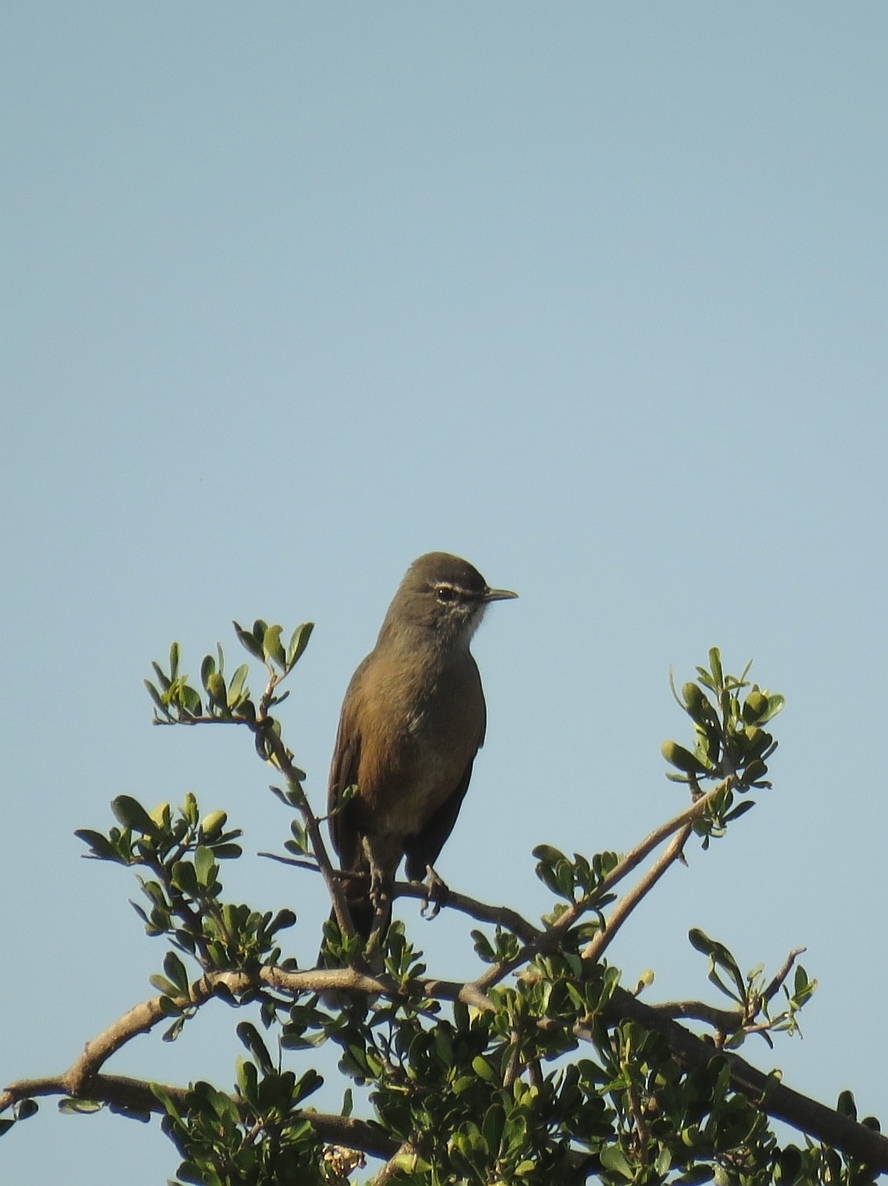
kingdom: Animalia
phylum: Chordata
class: Aves
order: Passeriformes
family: Muscicapidae
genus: Erythropygia
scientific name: Erythropygia coryphoeus
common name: Karoo scrub robin
